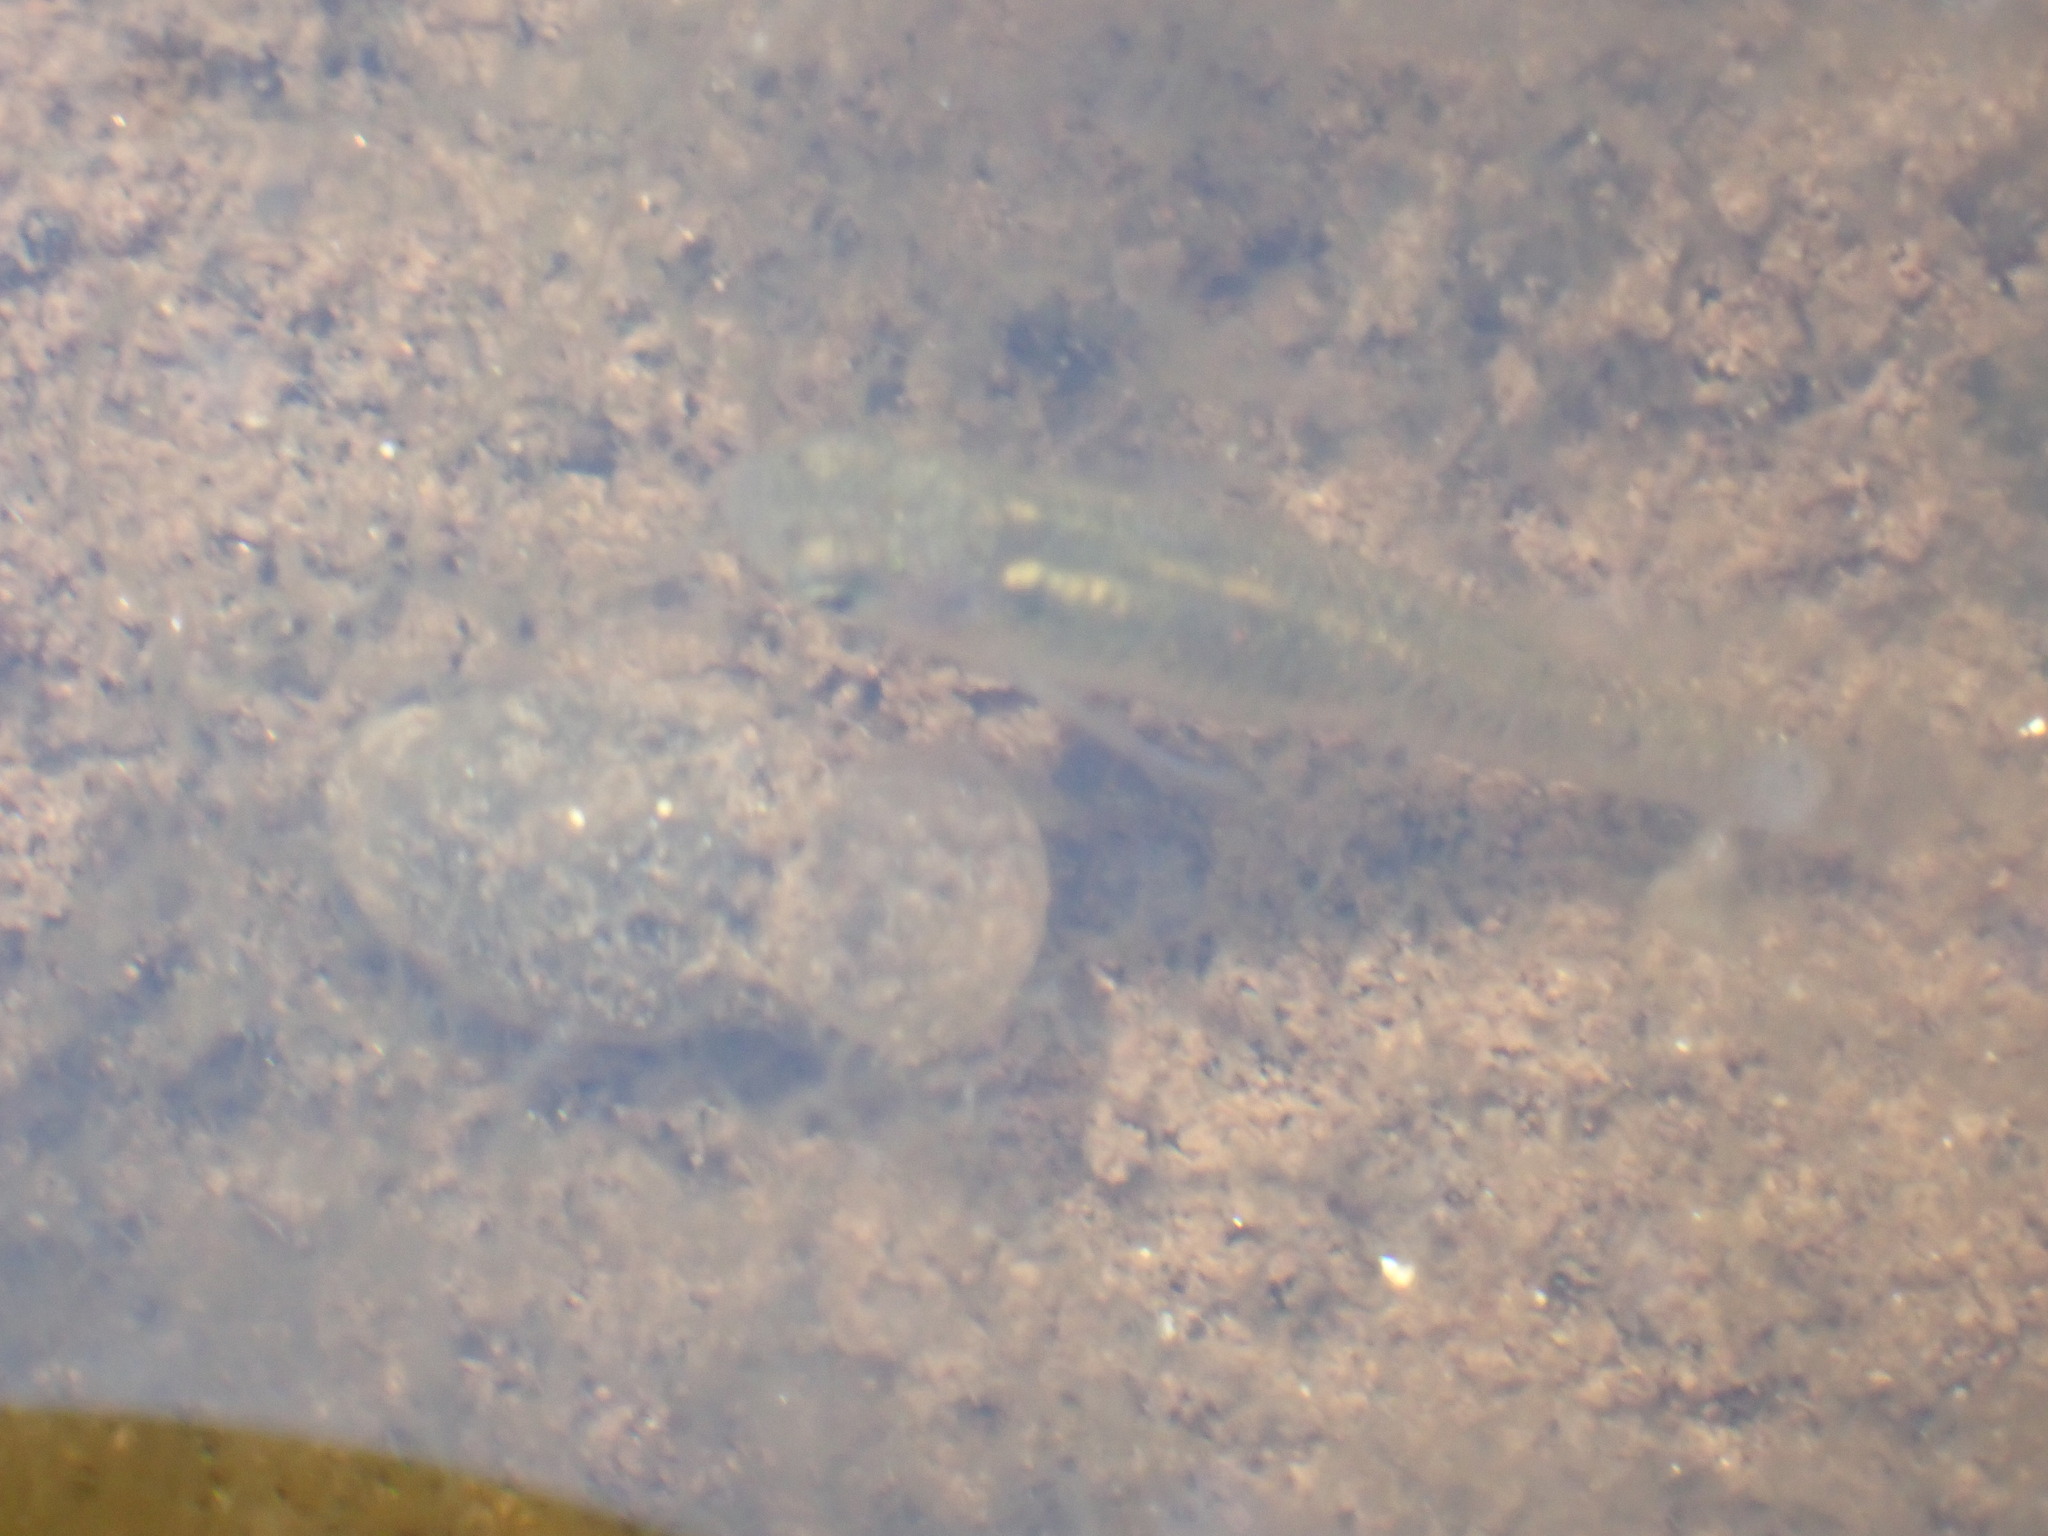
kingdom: Animalia
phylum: Chordata
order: Cyprinodontiformes
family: Poeciliidae
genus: Gambusia
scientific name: Gambusia holbrooki
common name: Eastern mosquitofish
